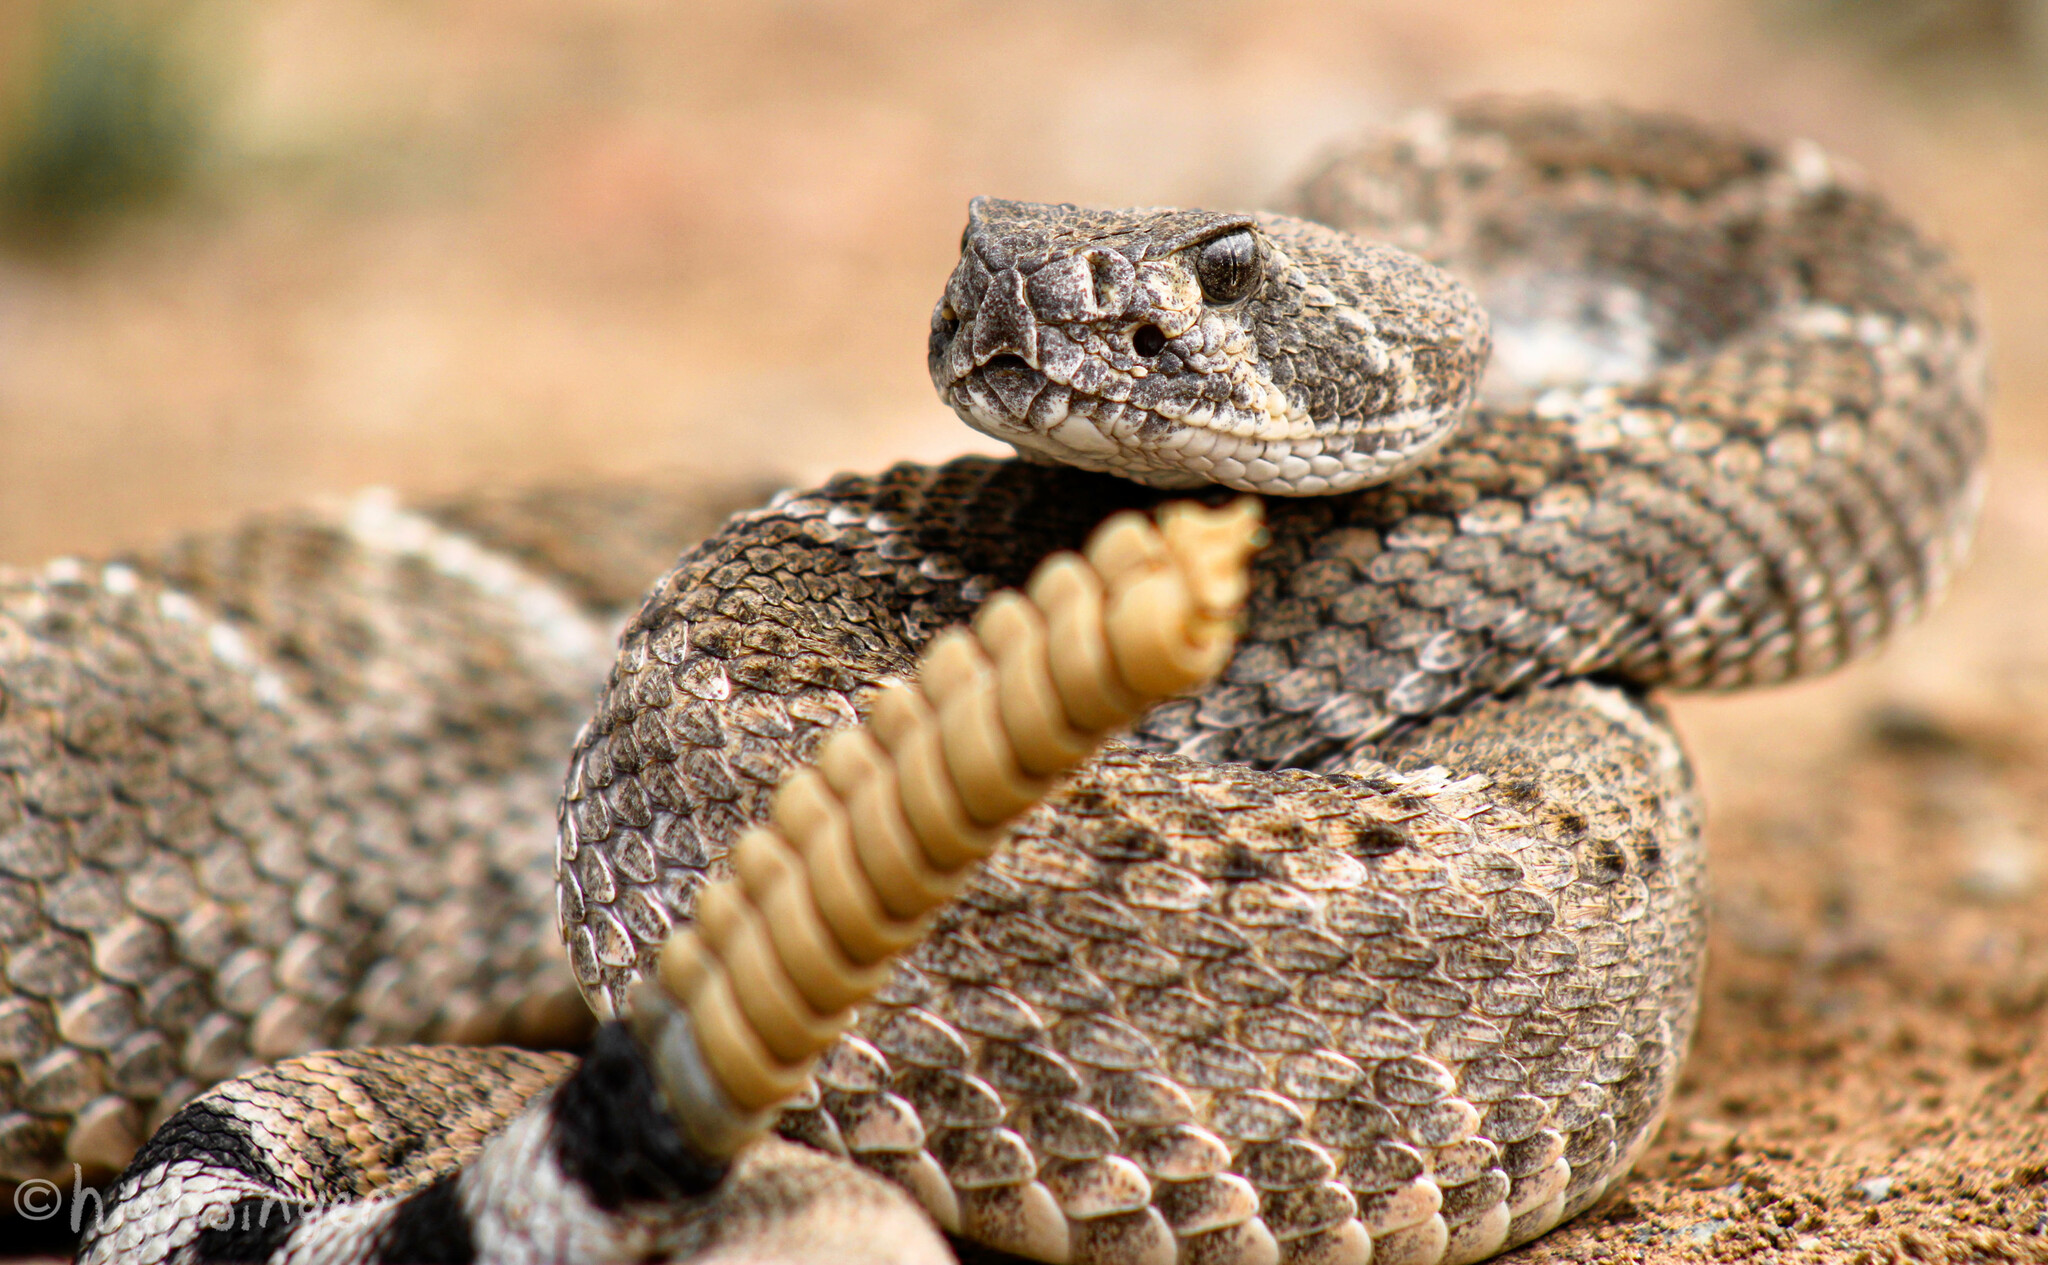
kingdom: Animalia
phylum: Chordata
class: Squamata
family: Viperidae
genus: Crotalus
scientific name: Crotalus atrox
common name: Western diamond-backed rattlesnake
